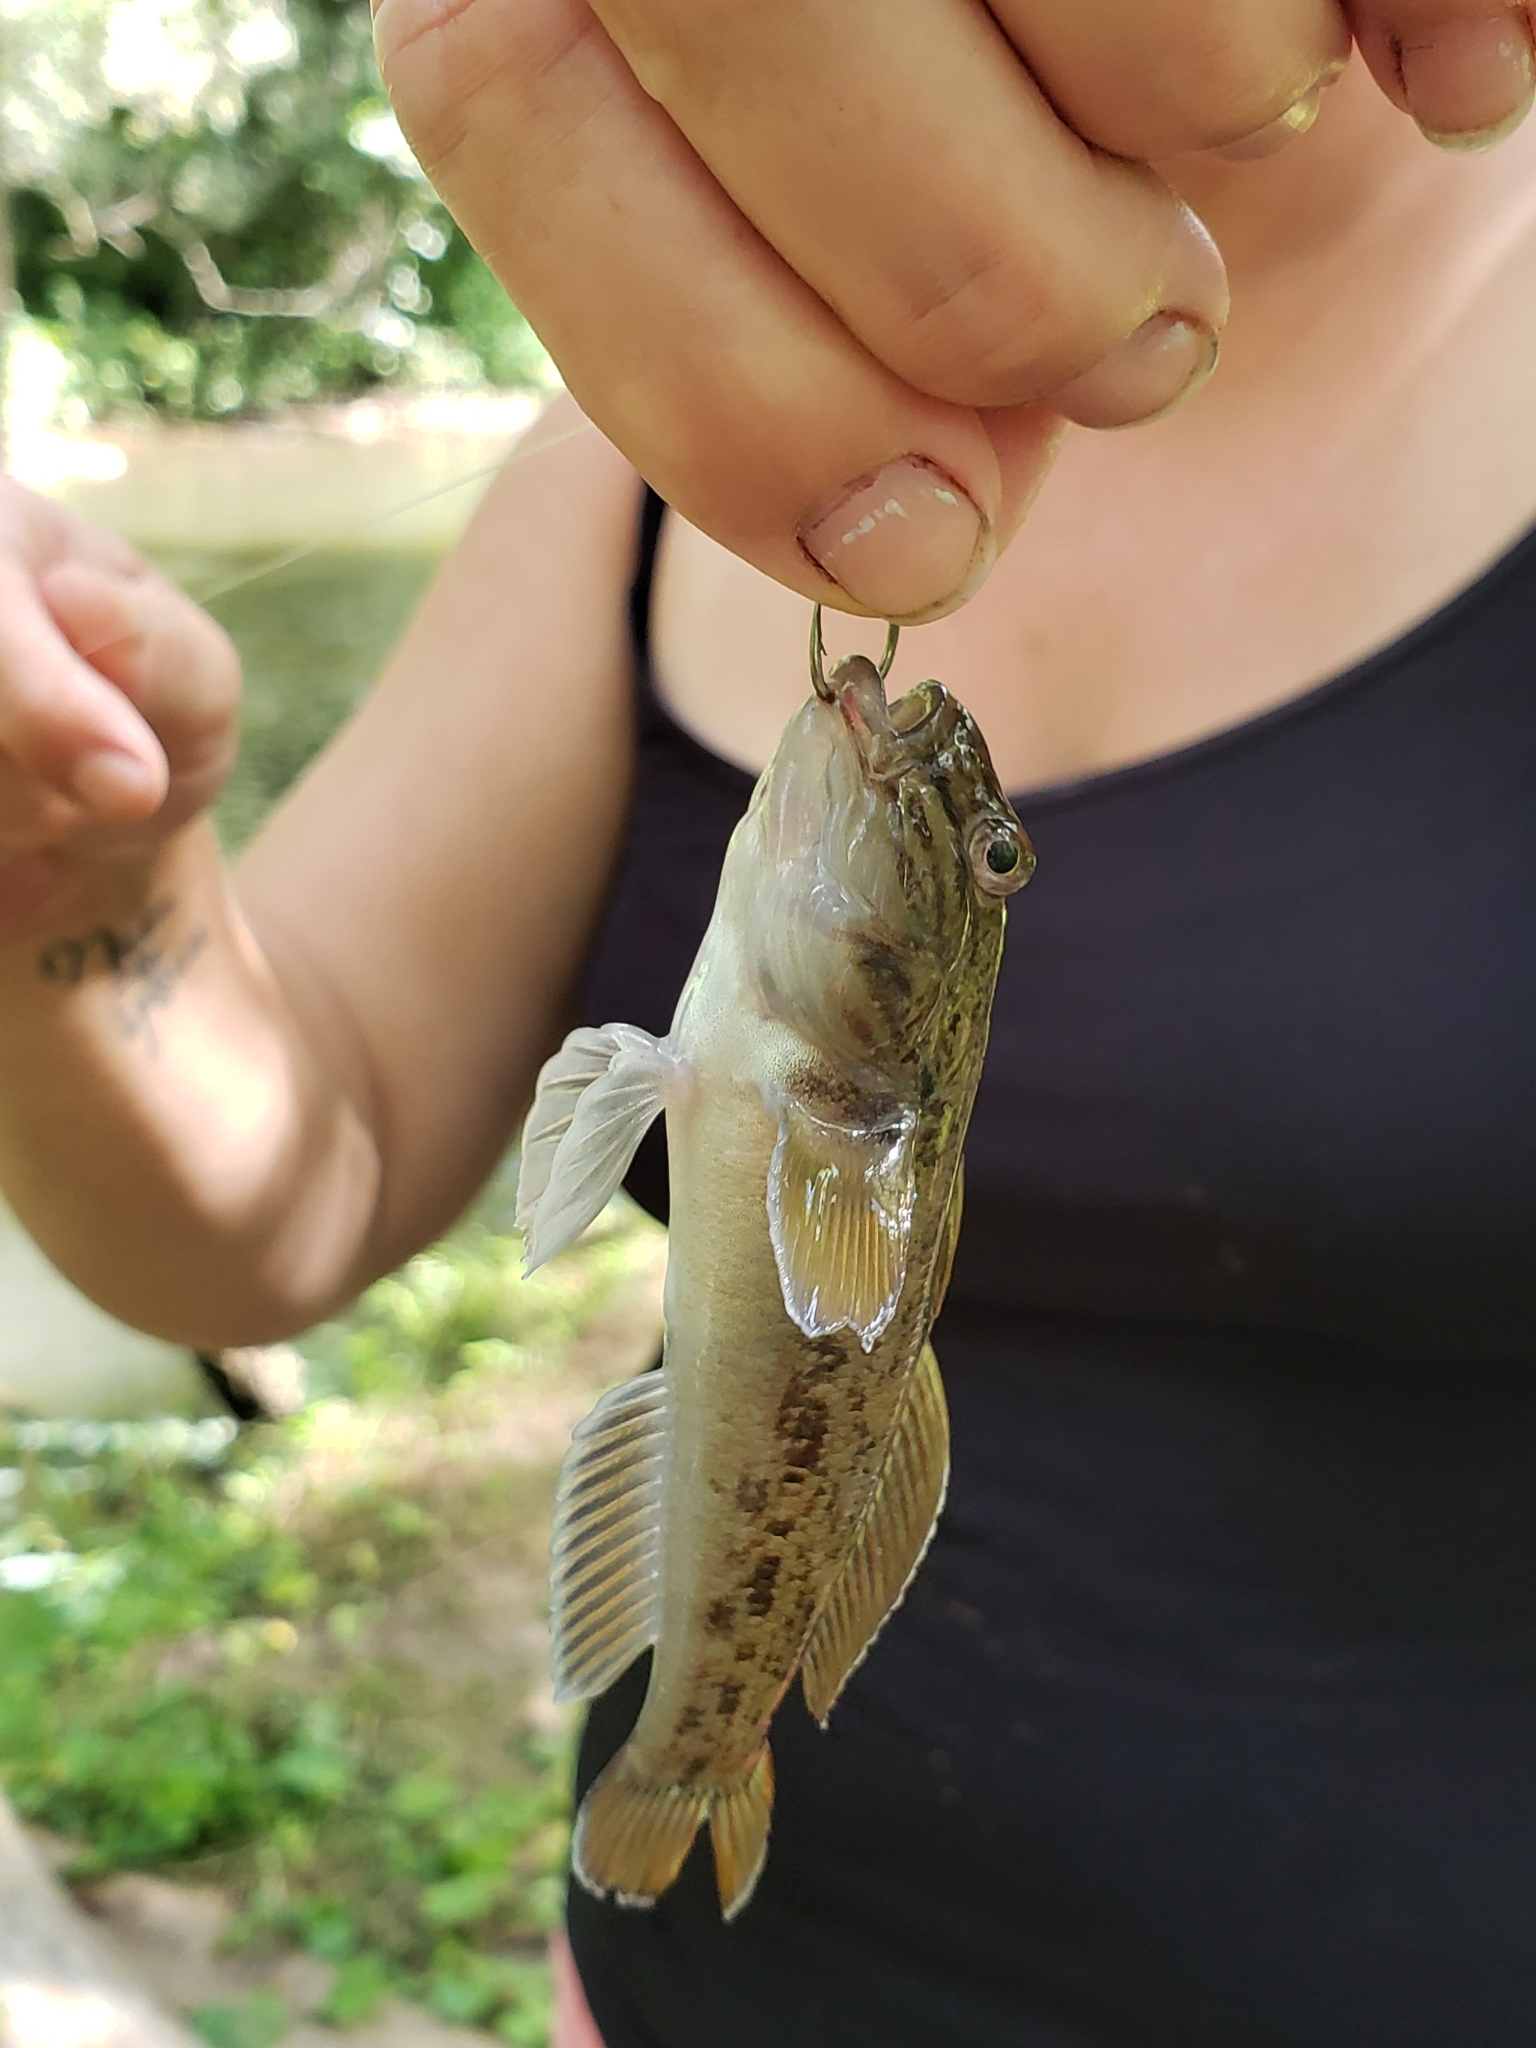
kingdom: Animalia
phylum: Chordata
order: Perciformes
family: Gobiidae
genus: Neogobius
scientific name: Neogobius melanostomus
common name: Round goby
